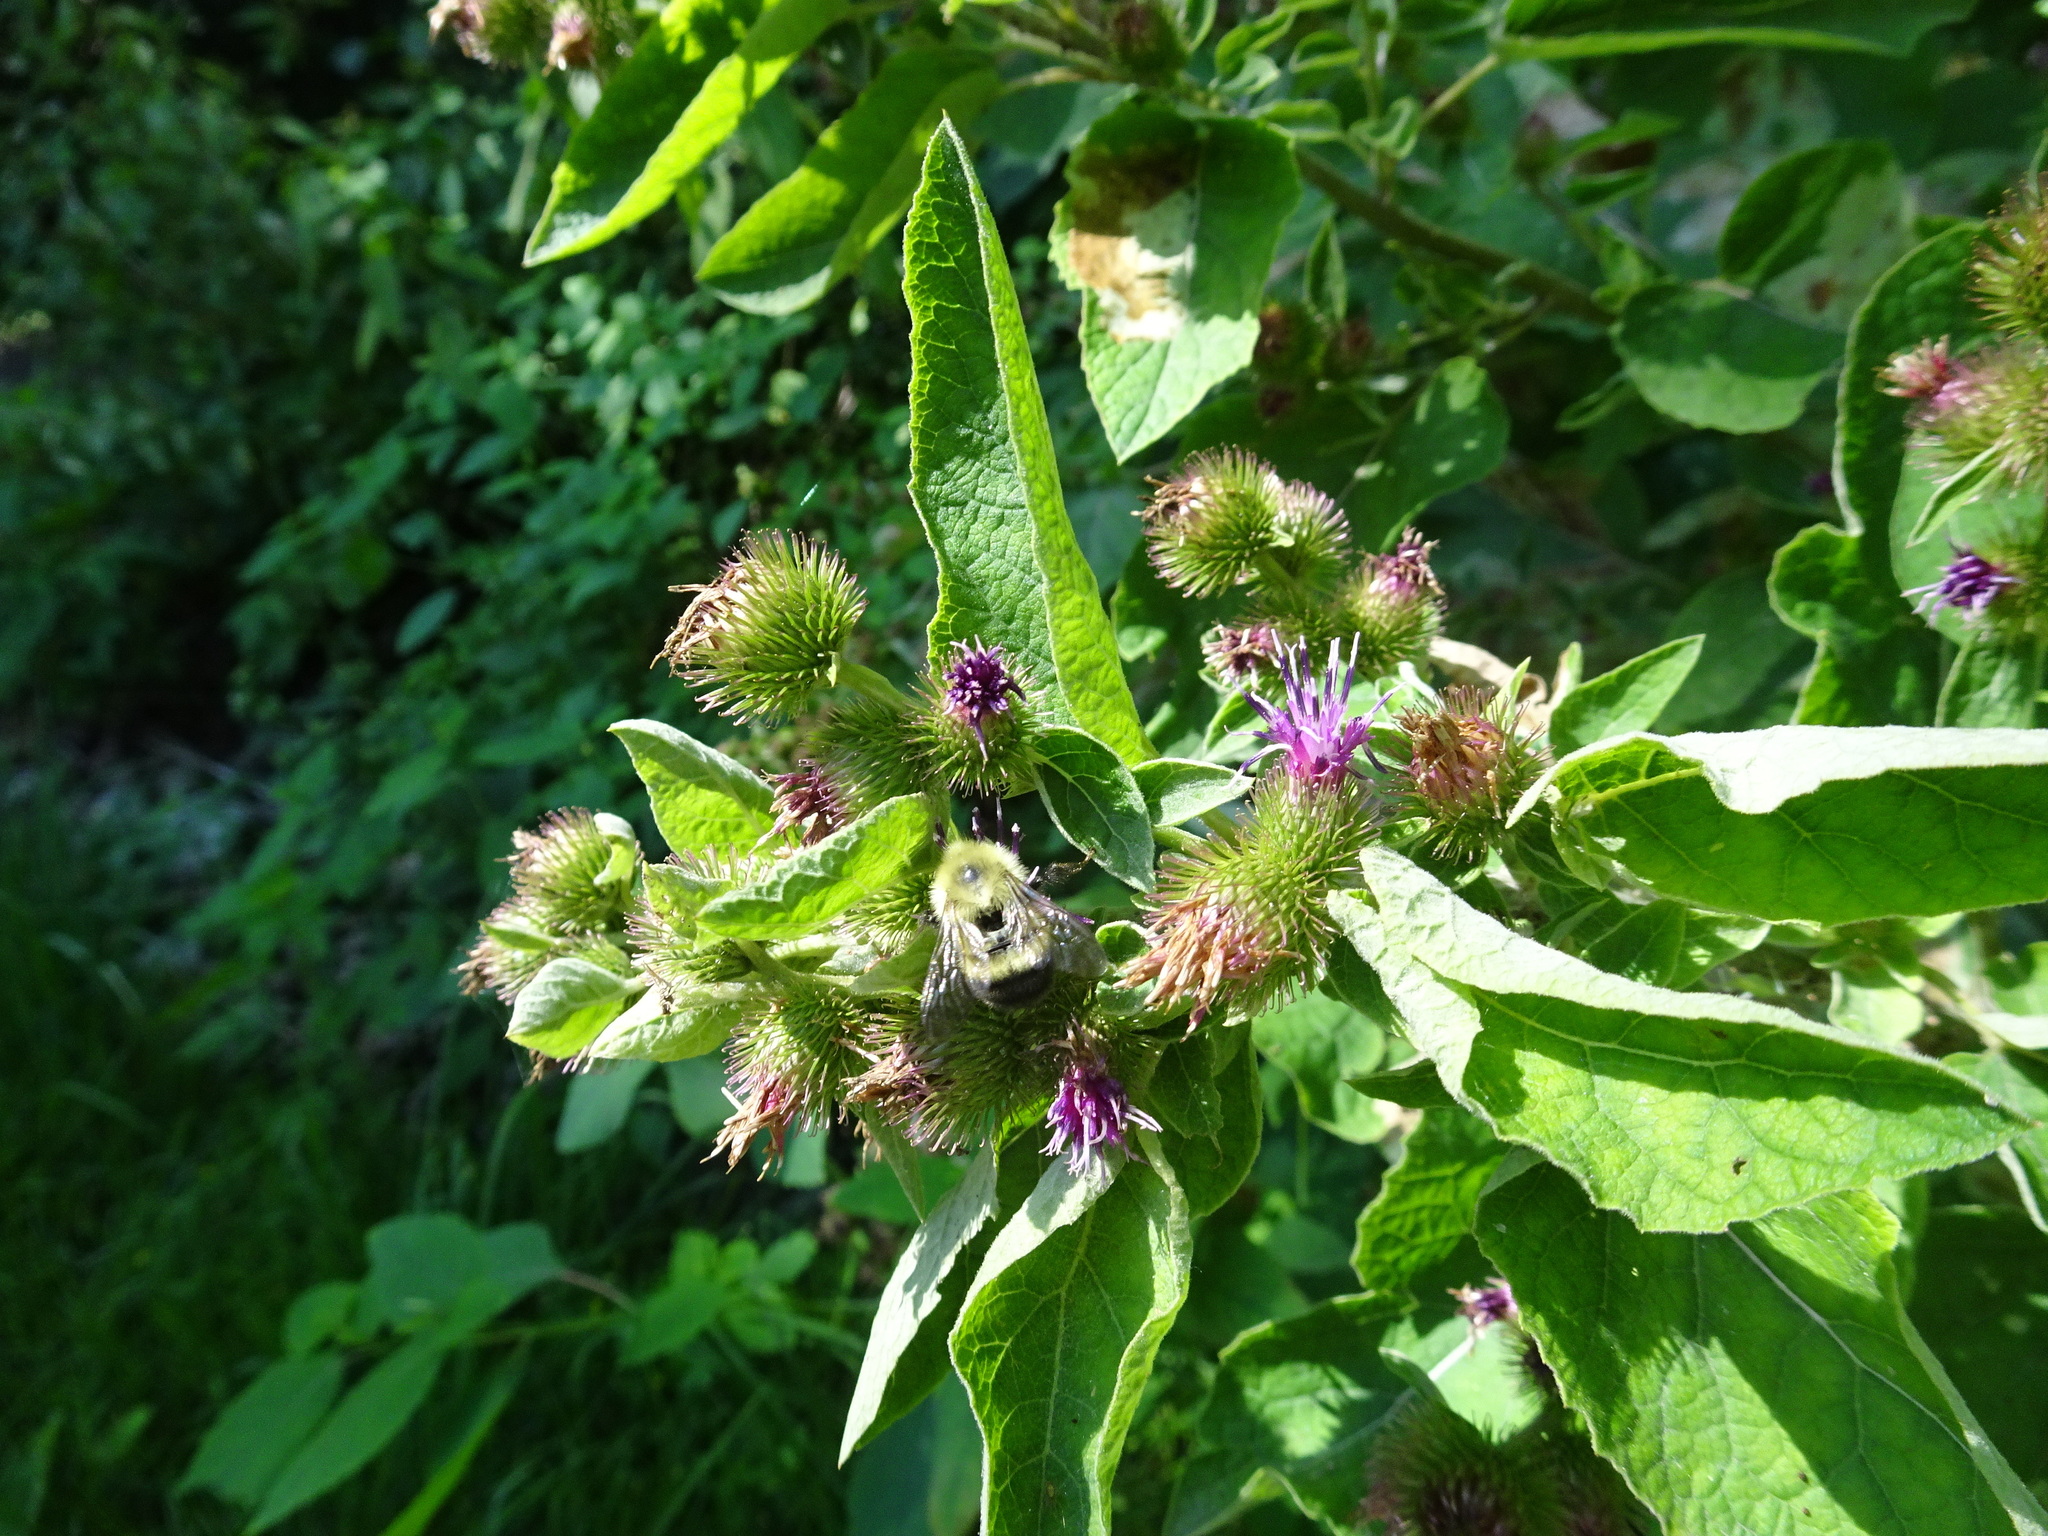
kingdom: Plantae
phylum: Tracheophyta
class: Magnoliopsida
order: Asterales
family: Asteraceae
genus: Arctium
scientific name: Arctium minus
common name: Lesser burdock
